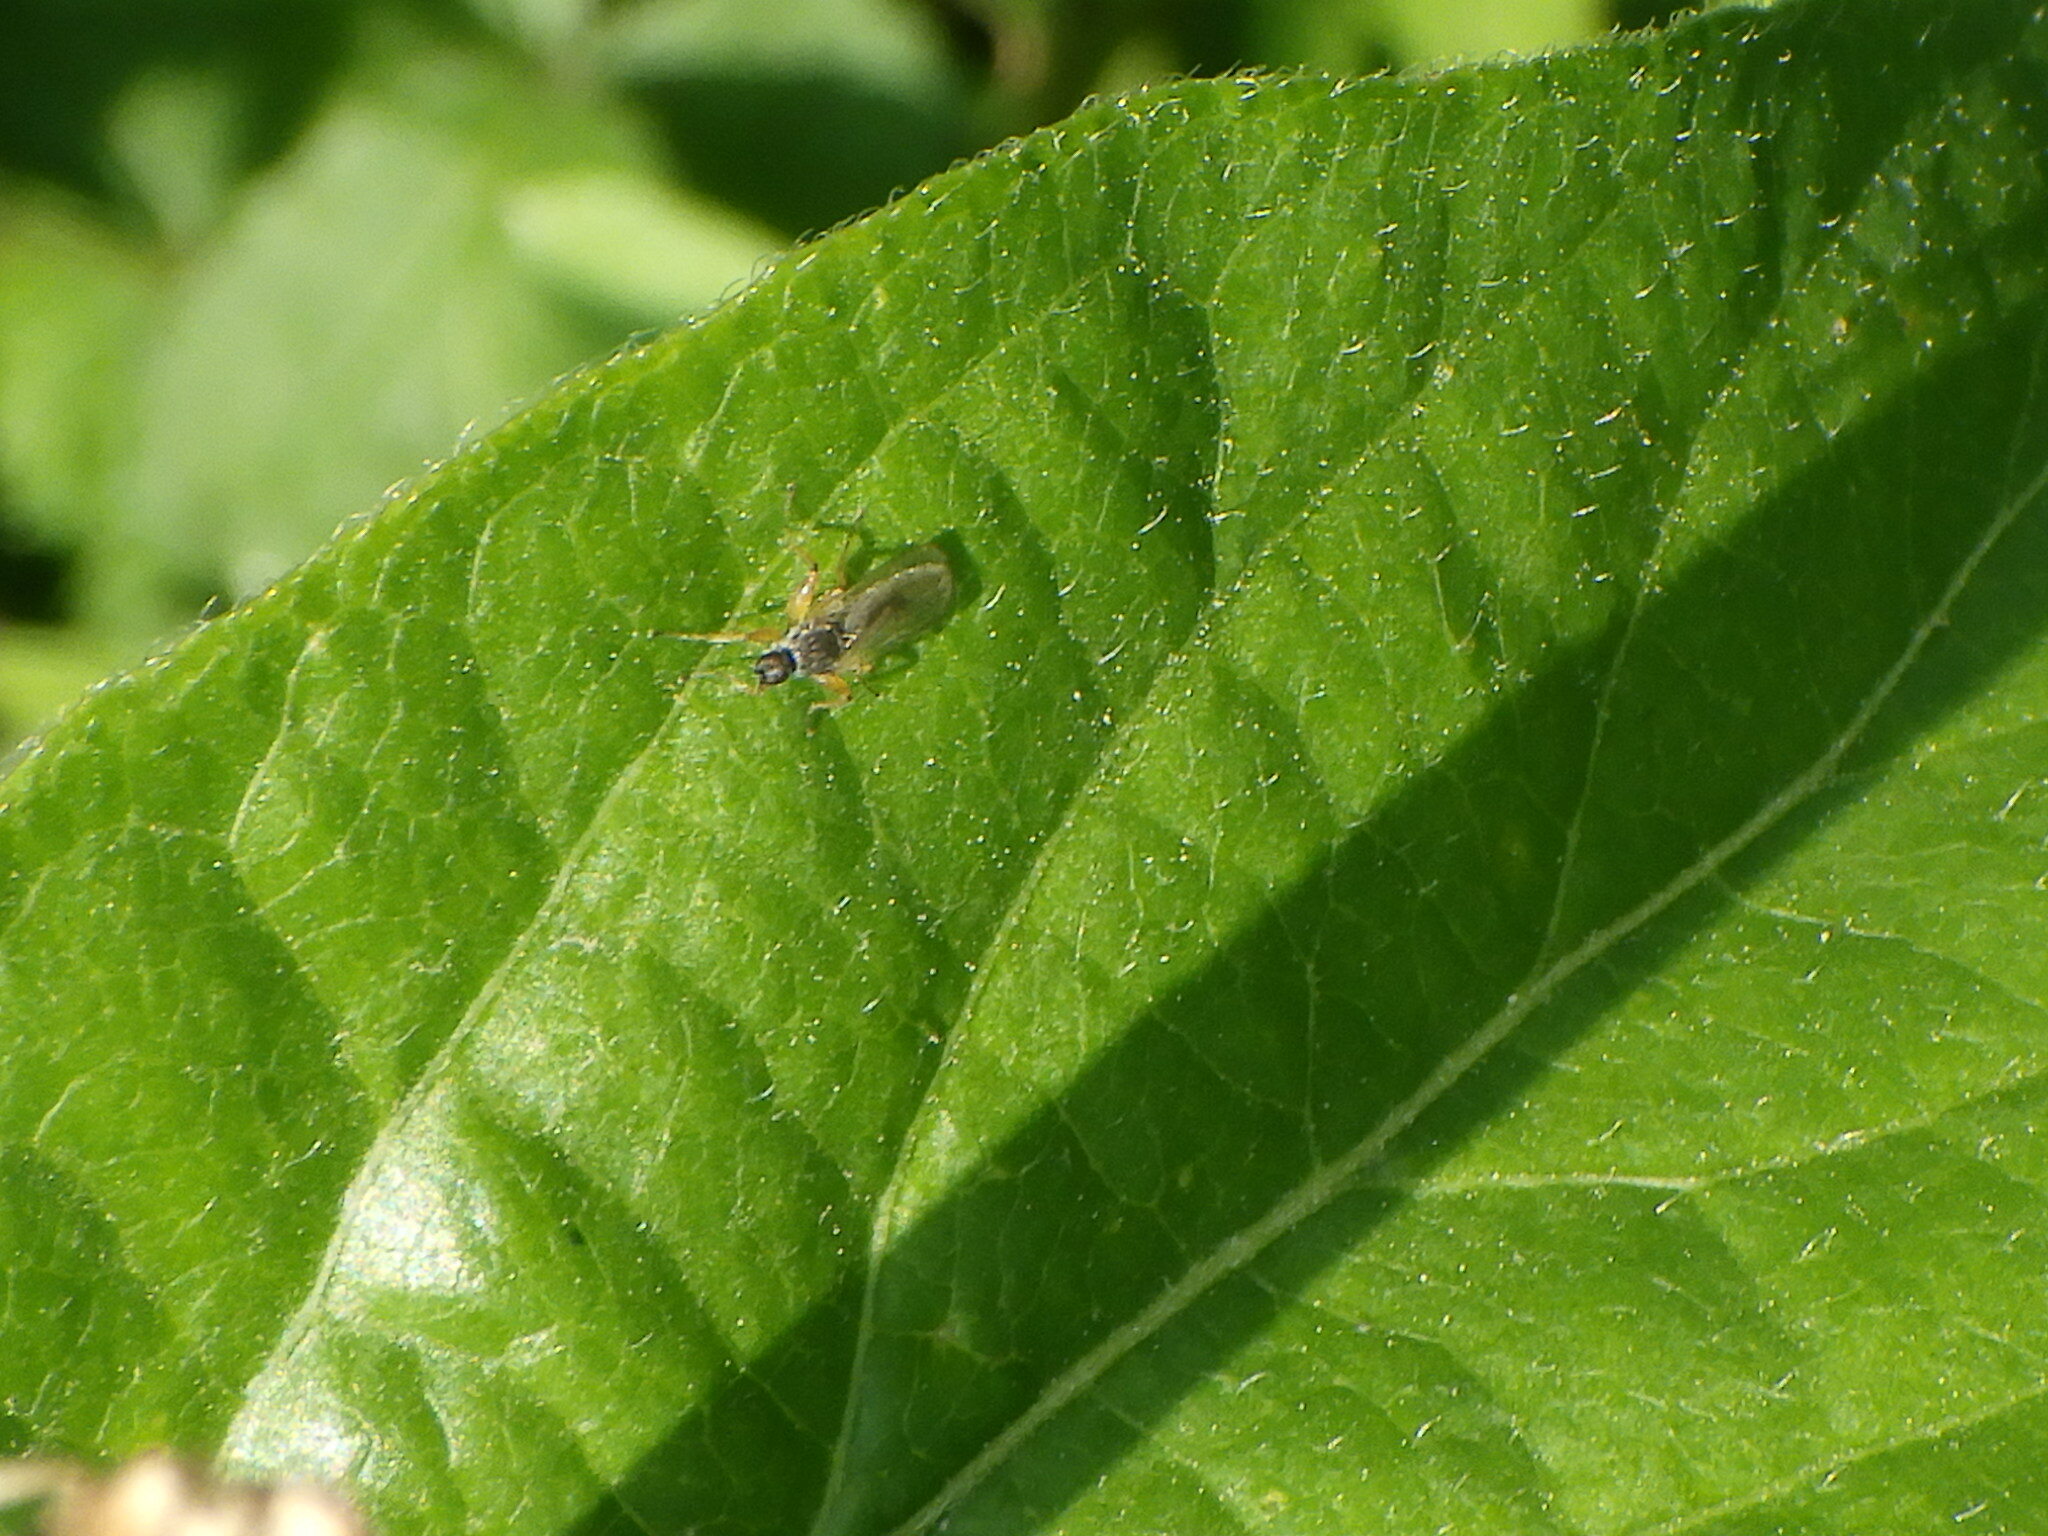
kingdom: Animalia
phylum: Arthropoda
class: Insecta
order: Diptera
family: Hybotidae
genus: Platypalpus
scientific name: Platypalpus
